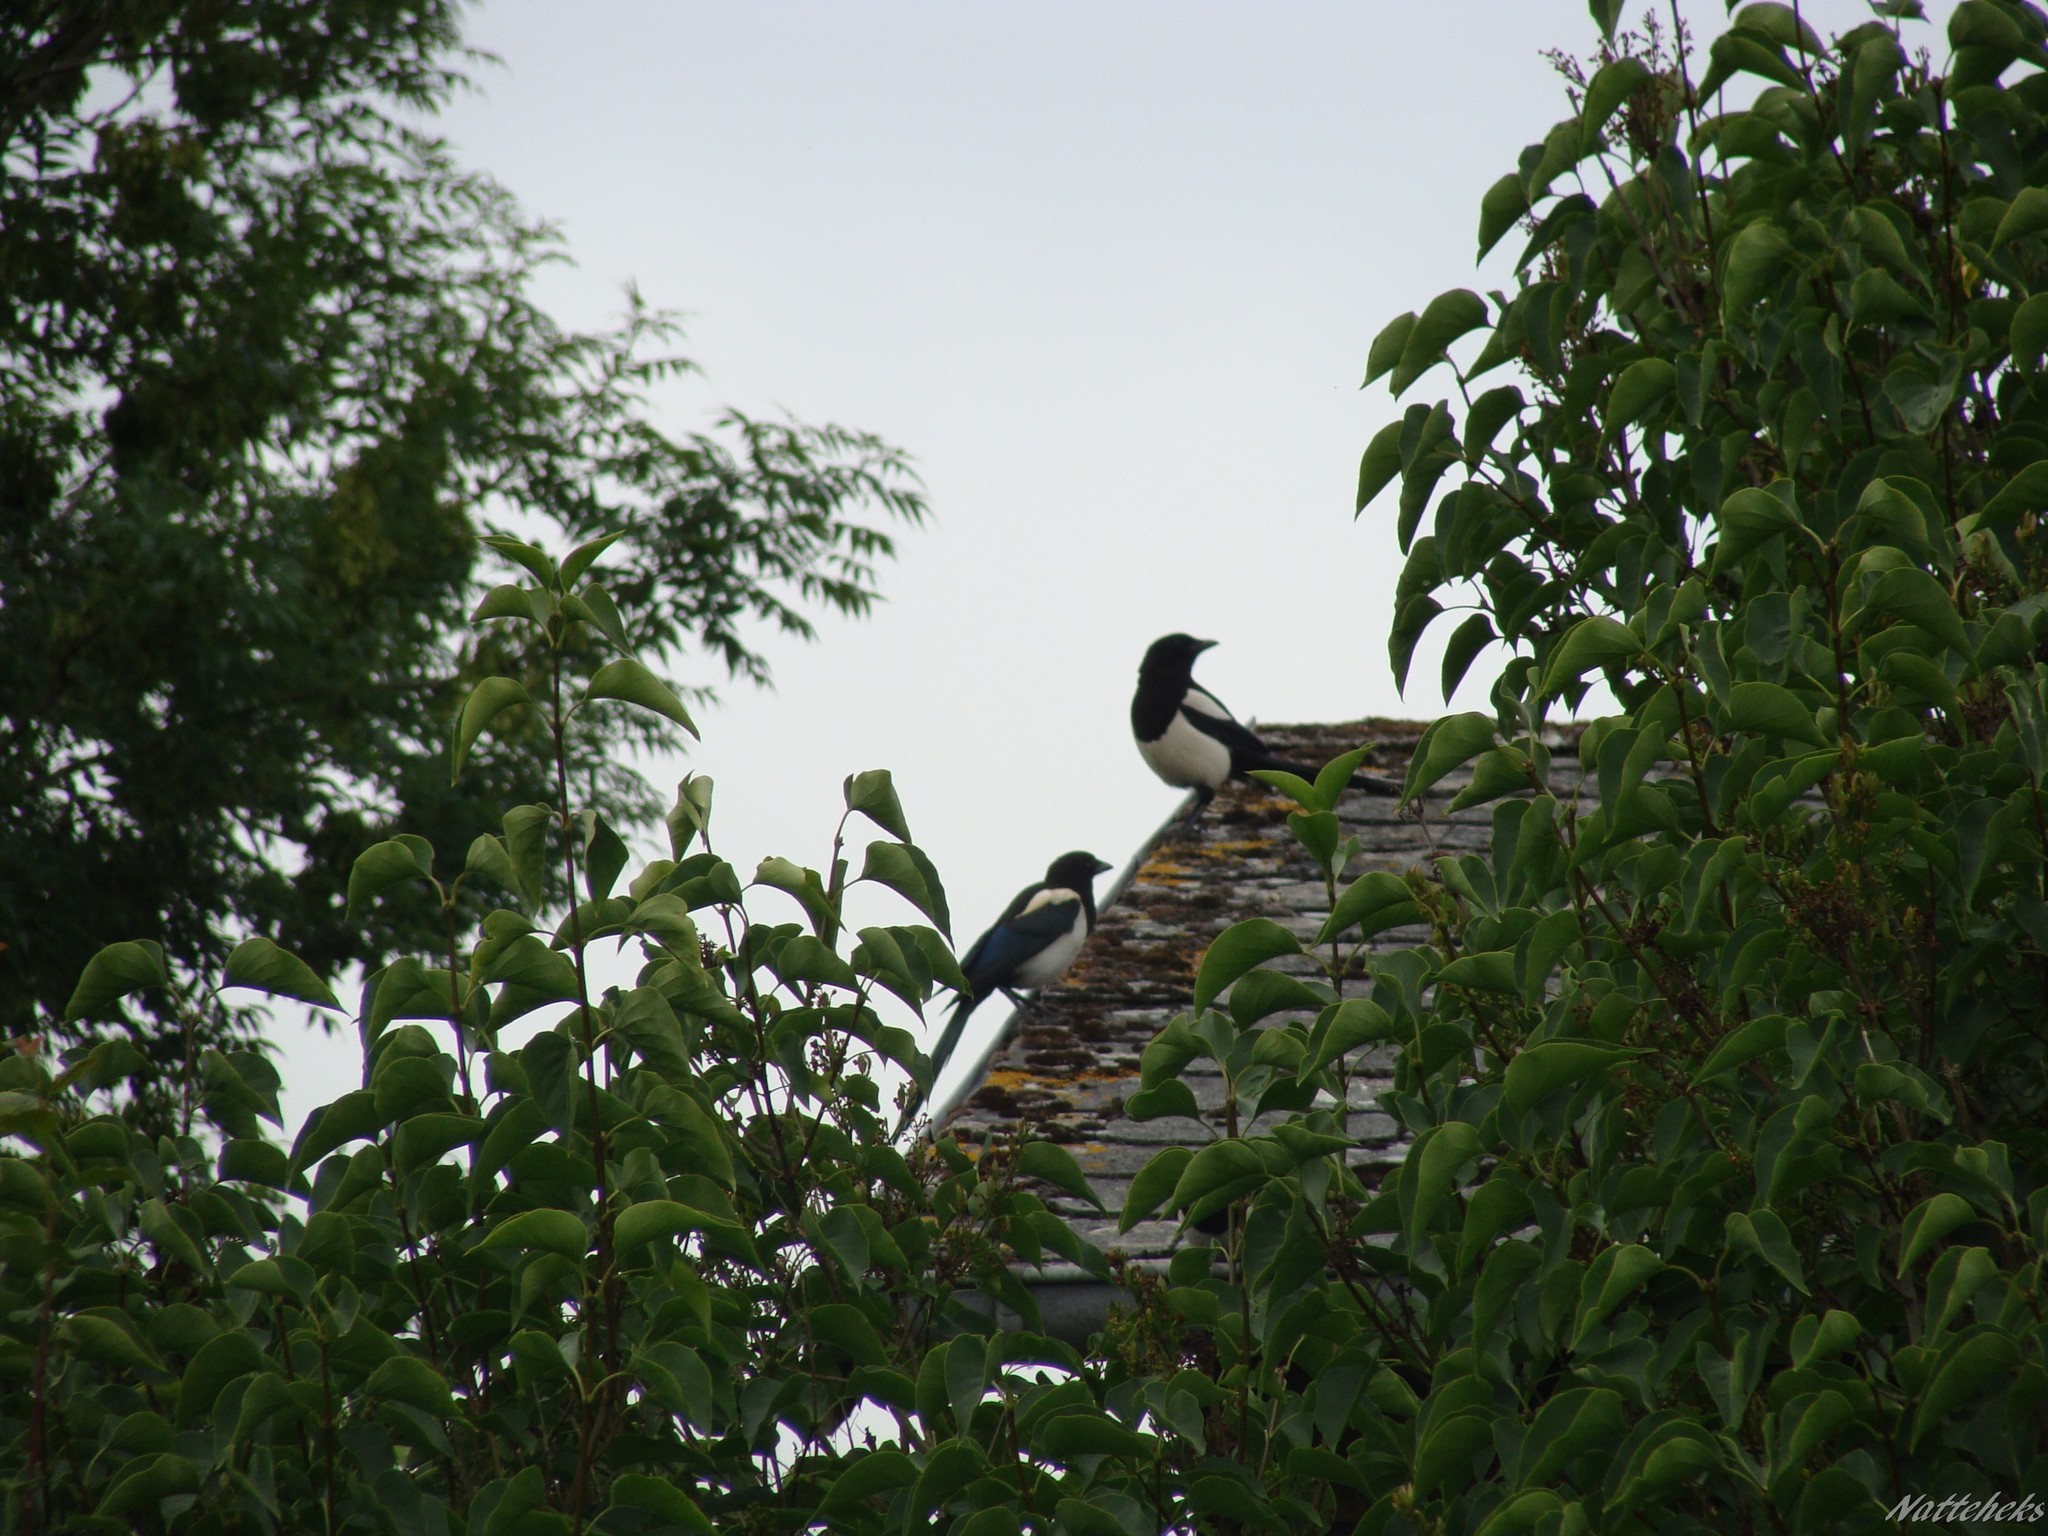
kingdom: Animalia
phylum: Chordata
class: Aves
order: Passeriformes
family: Corvidae
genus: Pica
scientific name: Pica pica
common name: Eurasian magpie
